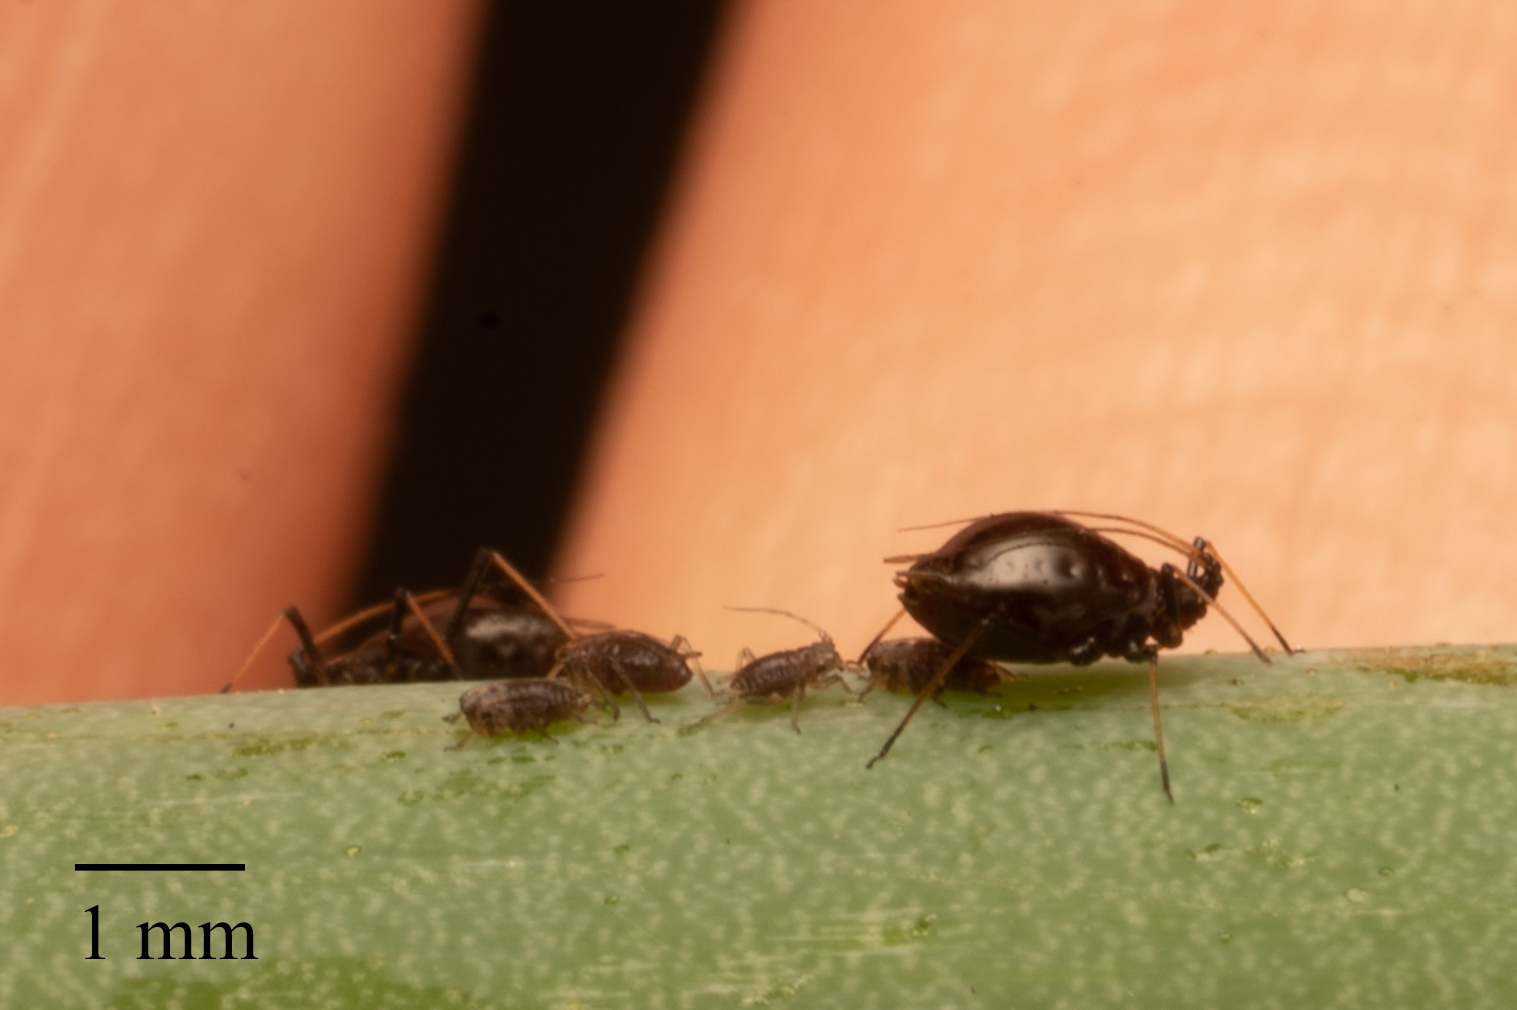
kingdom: Animalia
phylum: Arthropoda
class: Insecta
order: Hemiptera
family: Aphididae
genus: Neotoxoptera
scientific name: Neotoxoptera formosana
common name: Onion aphid
